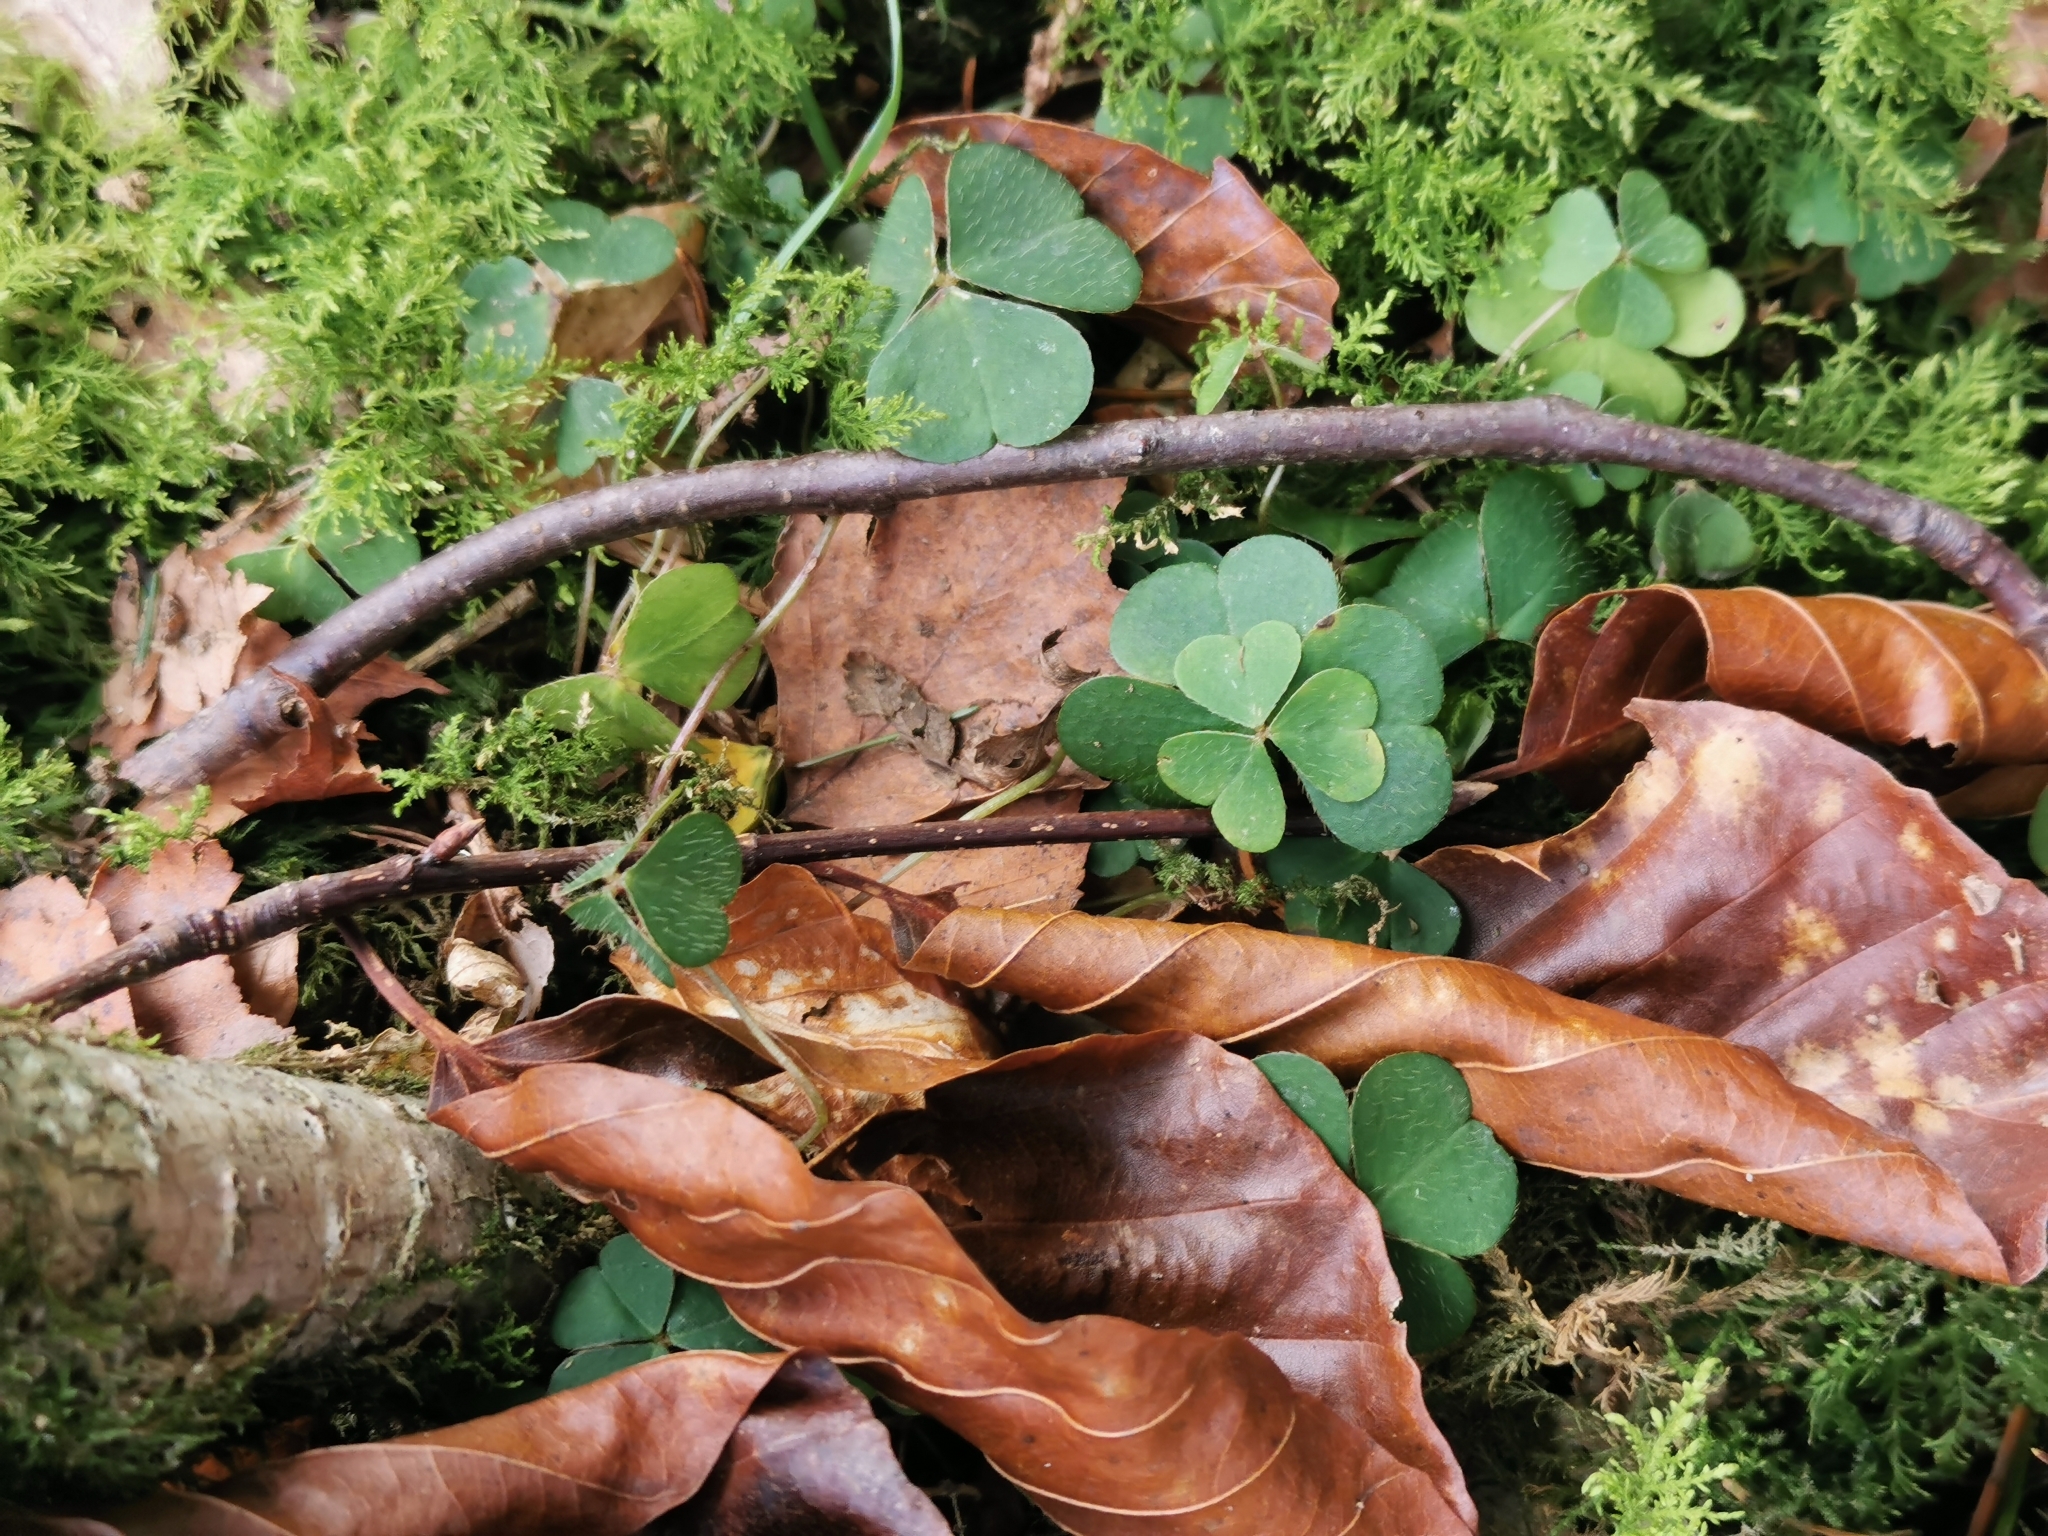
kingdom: Plantae
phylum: Tracheophyta
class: Magnoliopsida
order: Oxalidales
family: Oxalidaceae
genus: Oxalis
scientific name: Oxalis acetosella
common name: Wood-sorrel
